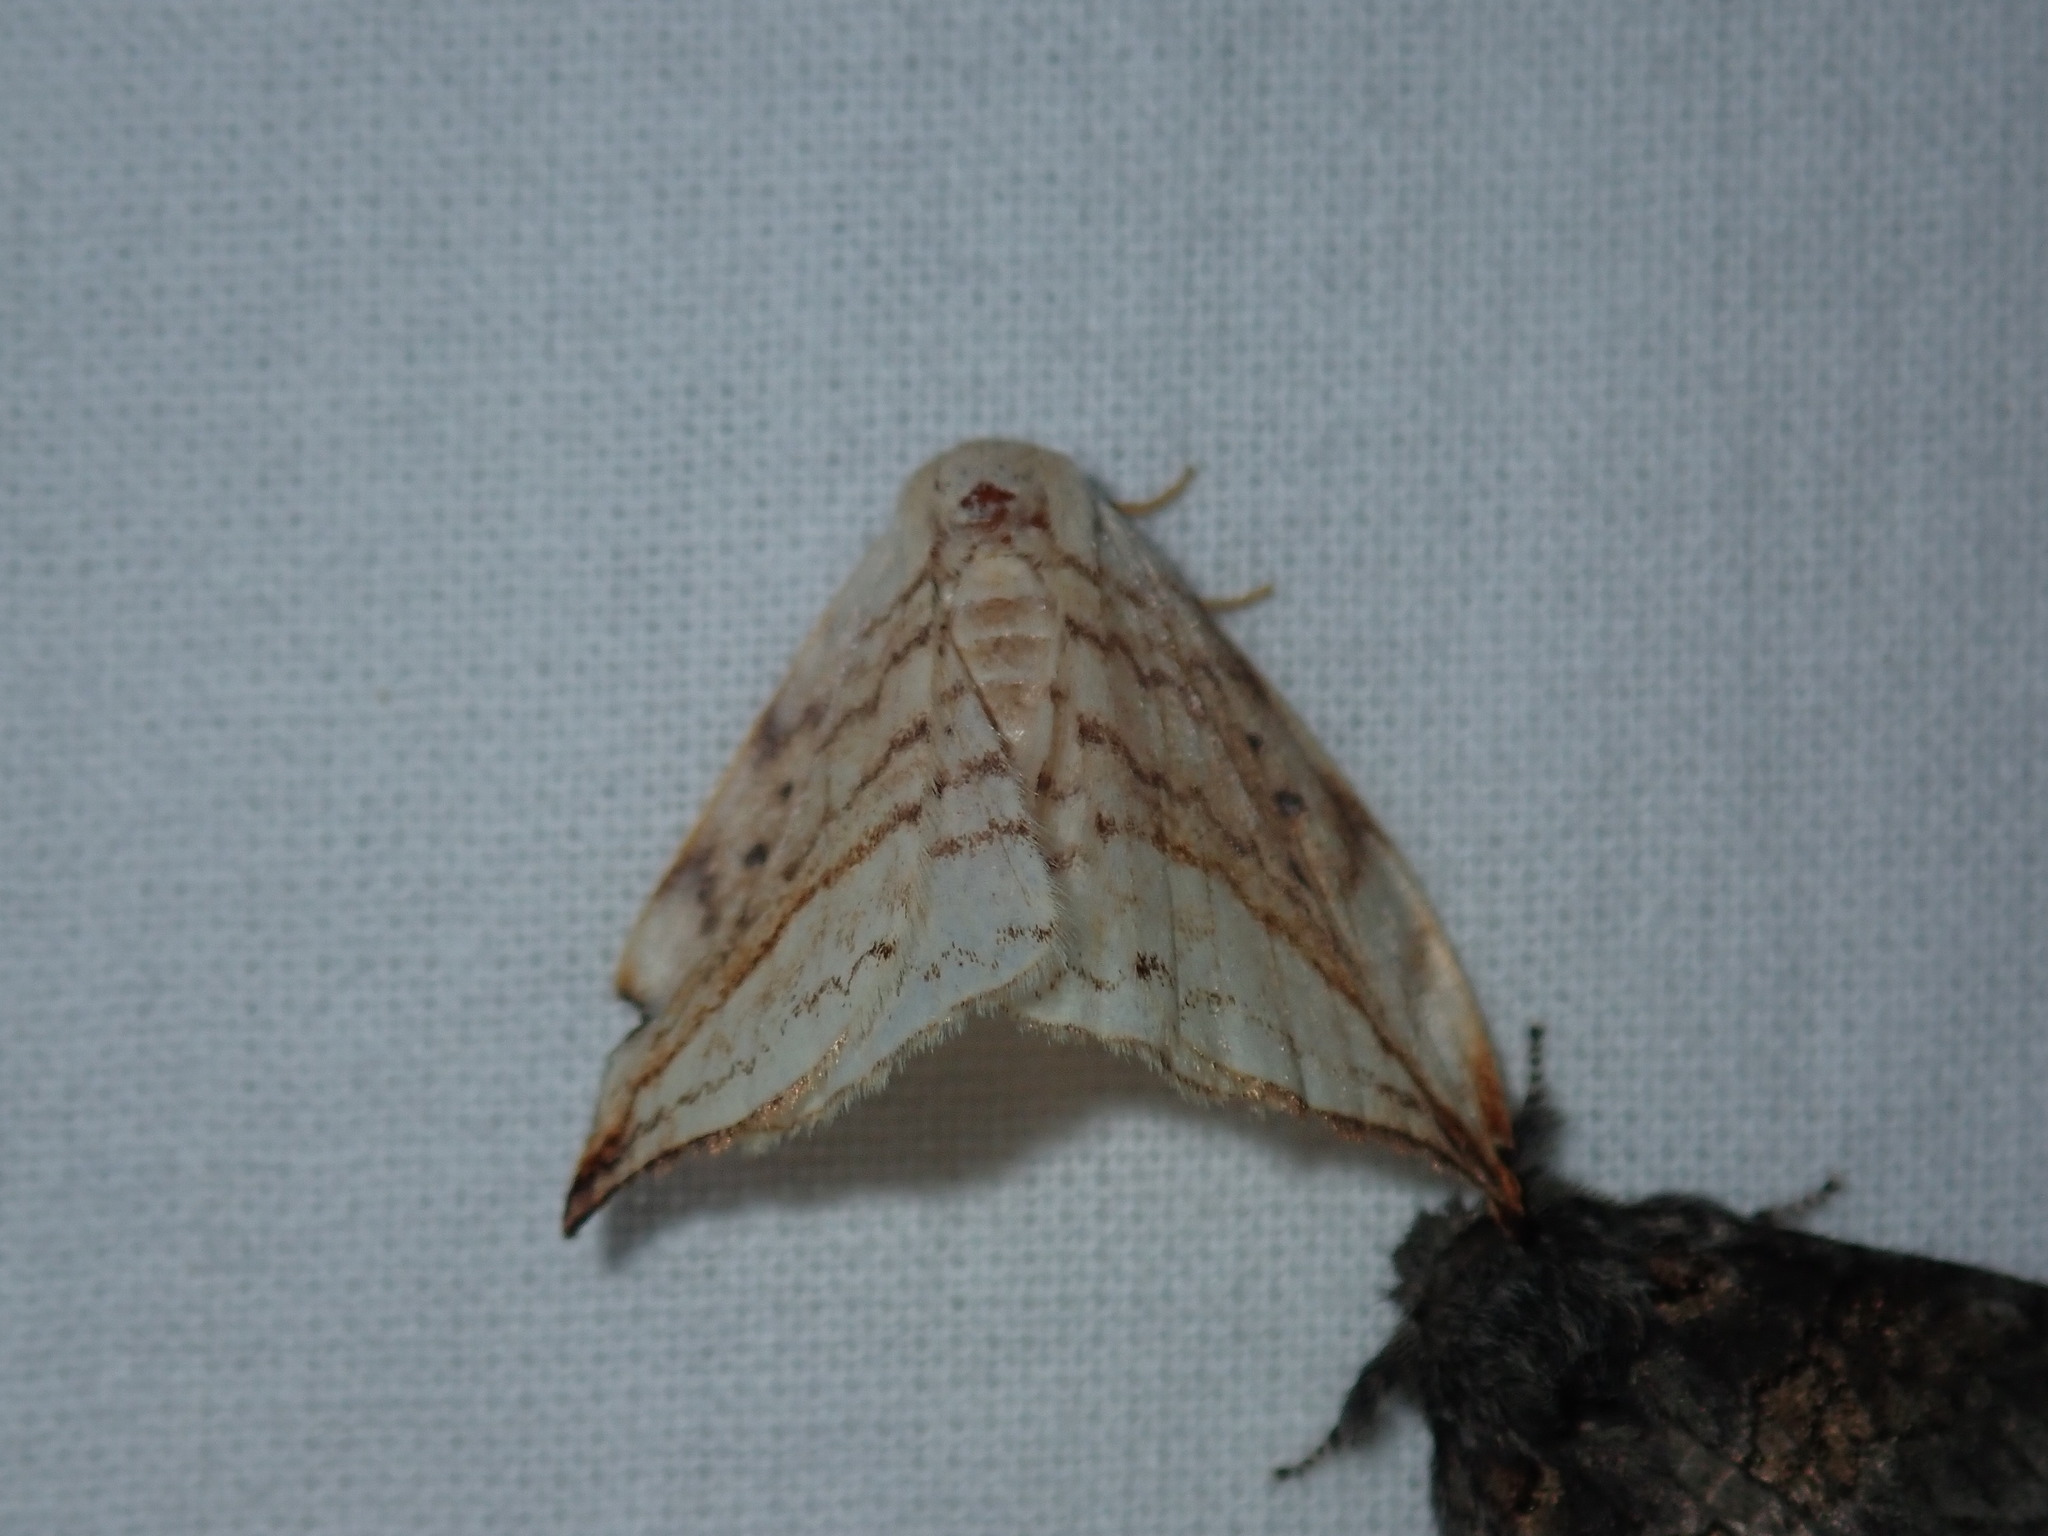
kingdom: Animalia
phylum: Arthropoda
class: Insecta
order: Lepidoptera
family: Drepanidae
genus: Drepana
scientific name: Drepana arcuata
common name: Arched hooktip moth
